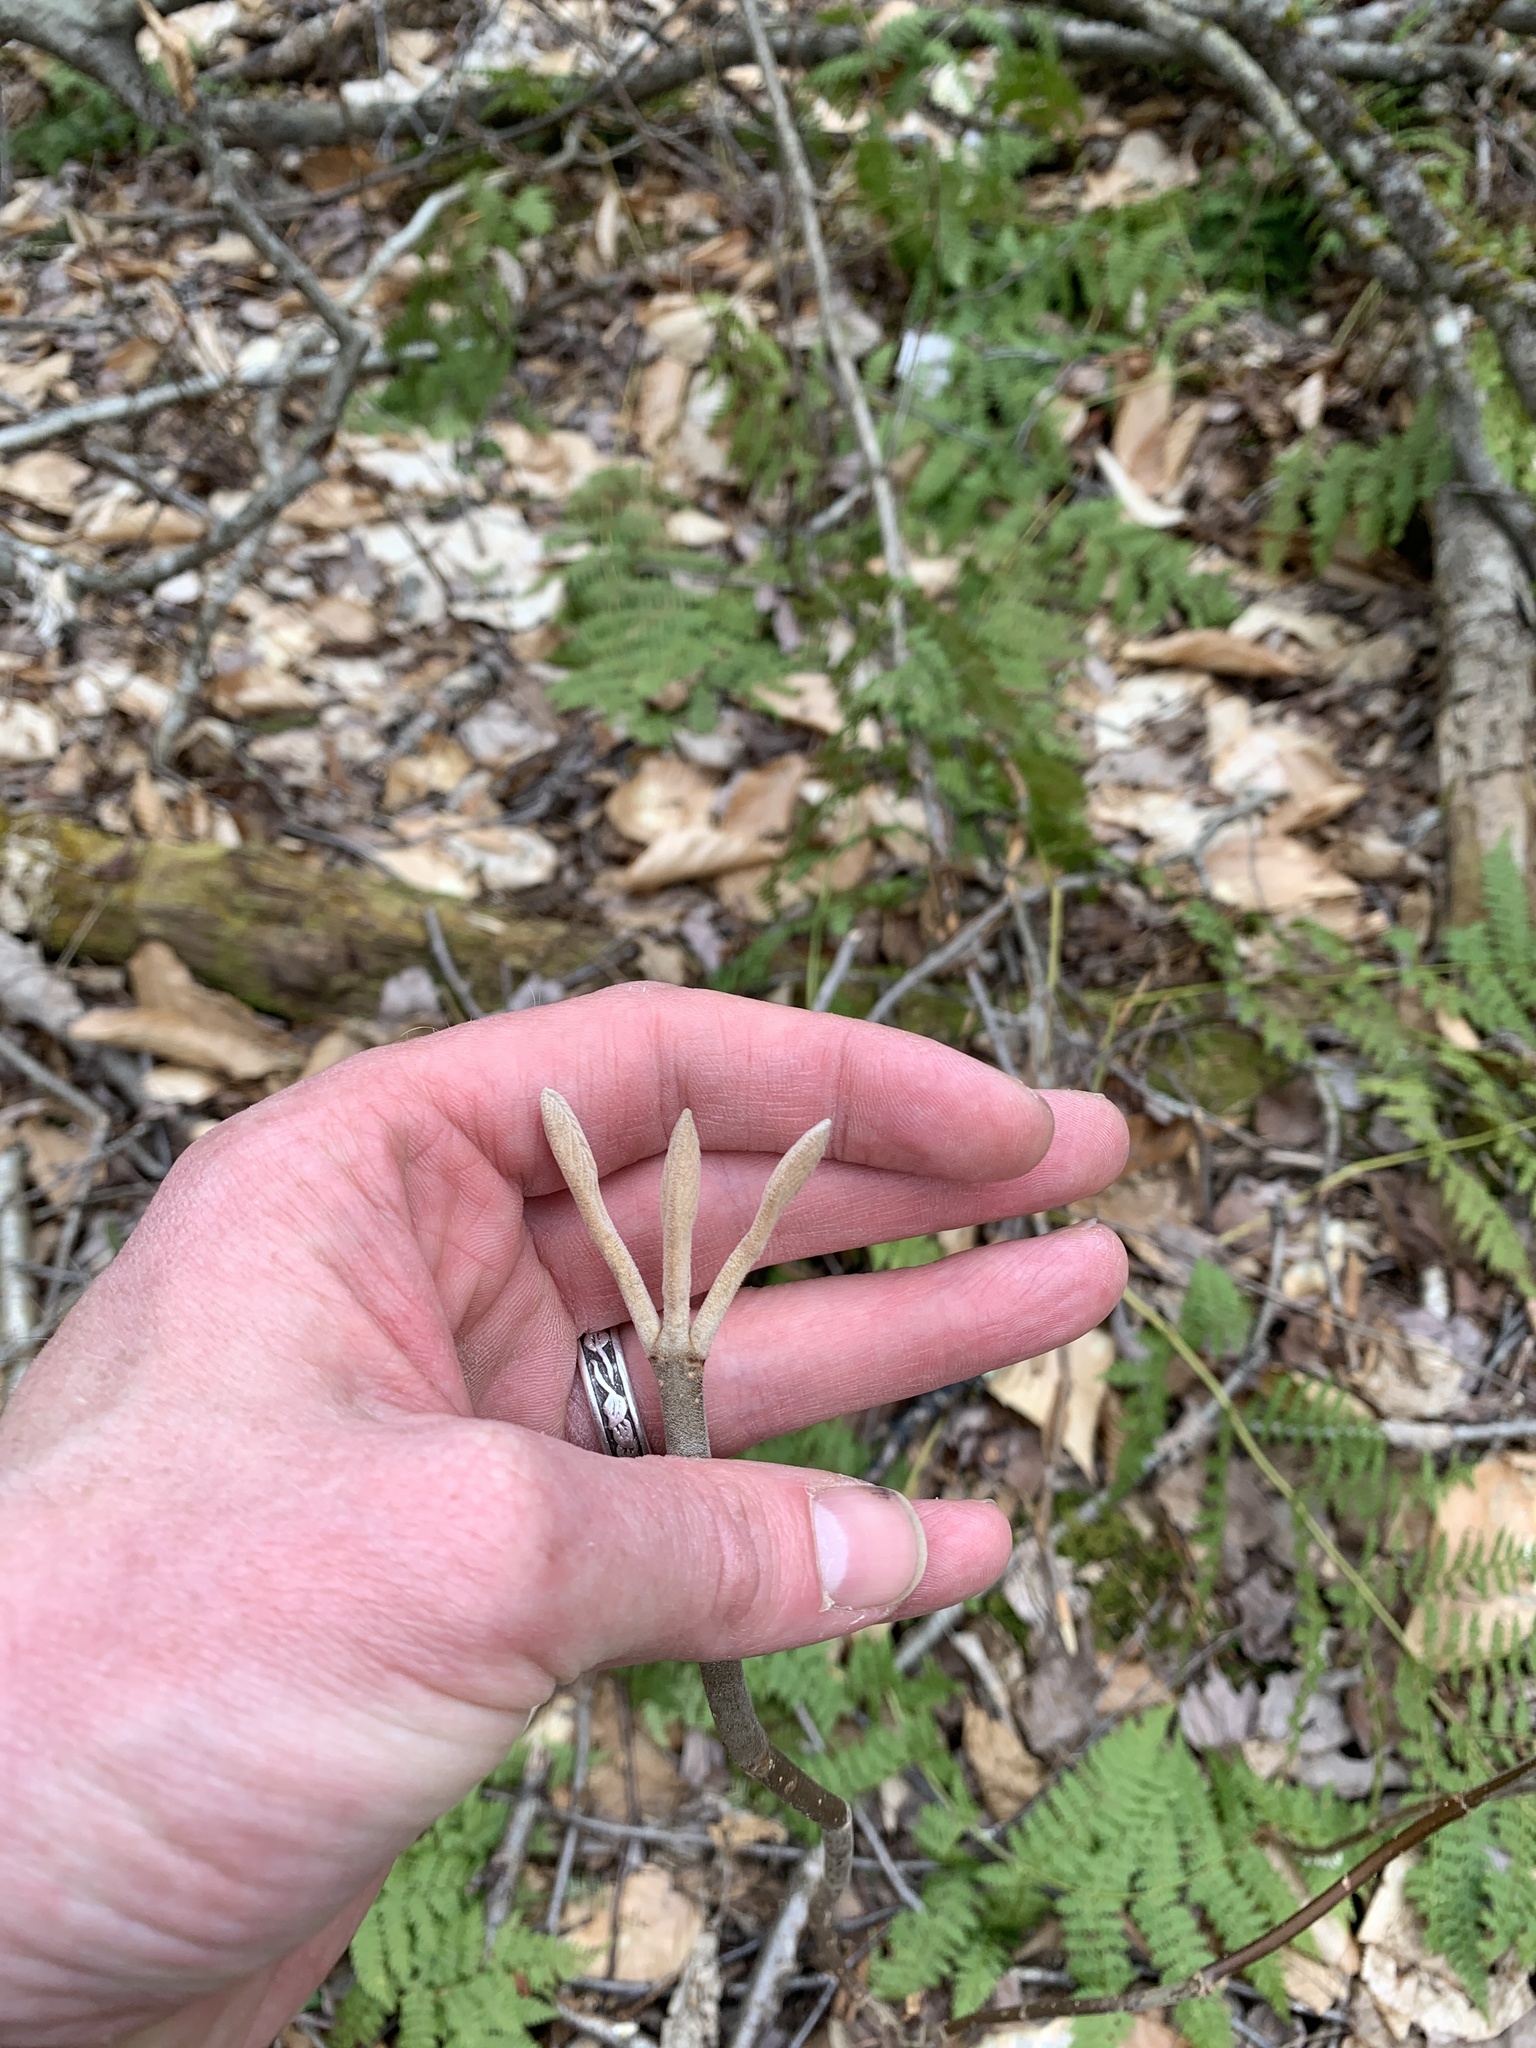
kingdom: Plantae
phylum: Tracheophyta
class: Magnoliopsida
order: Dipsacales
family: Viburnaceae
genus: Viburnum
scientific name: Viburnum lantanoides
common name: Hobblebush
